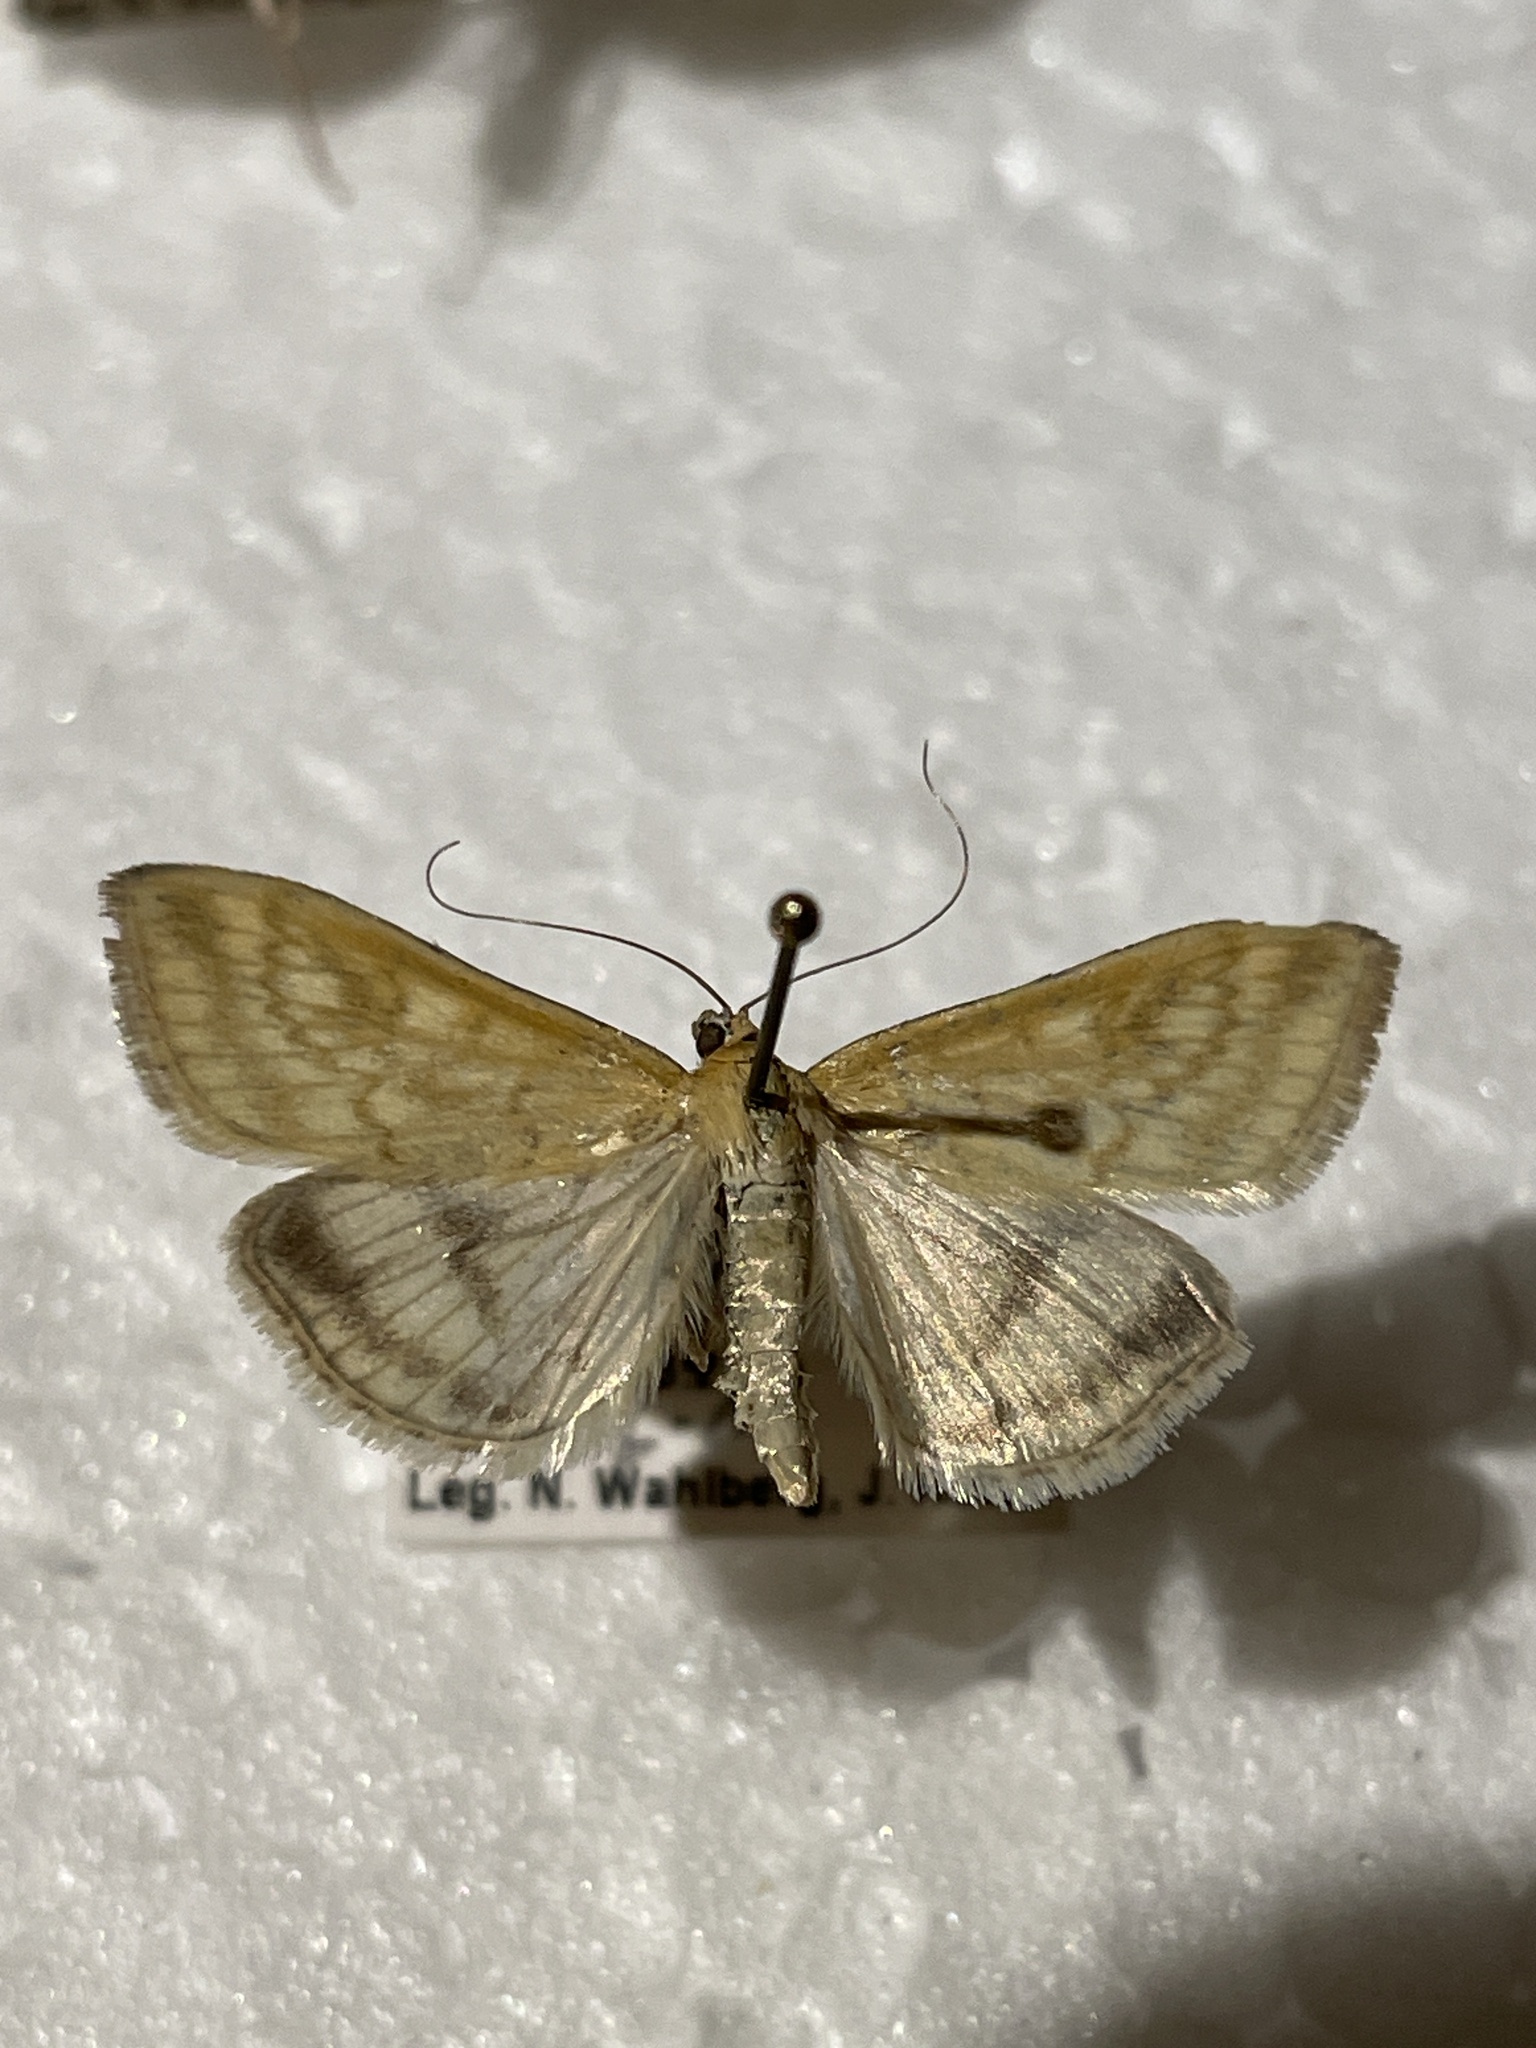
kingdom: Animalia
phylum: Arthropoda
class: Insecta
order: Lepidoptera
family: Crambidae
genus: Sitochroa
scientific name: Sitochroa verticalis
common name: Lesser pearl
